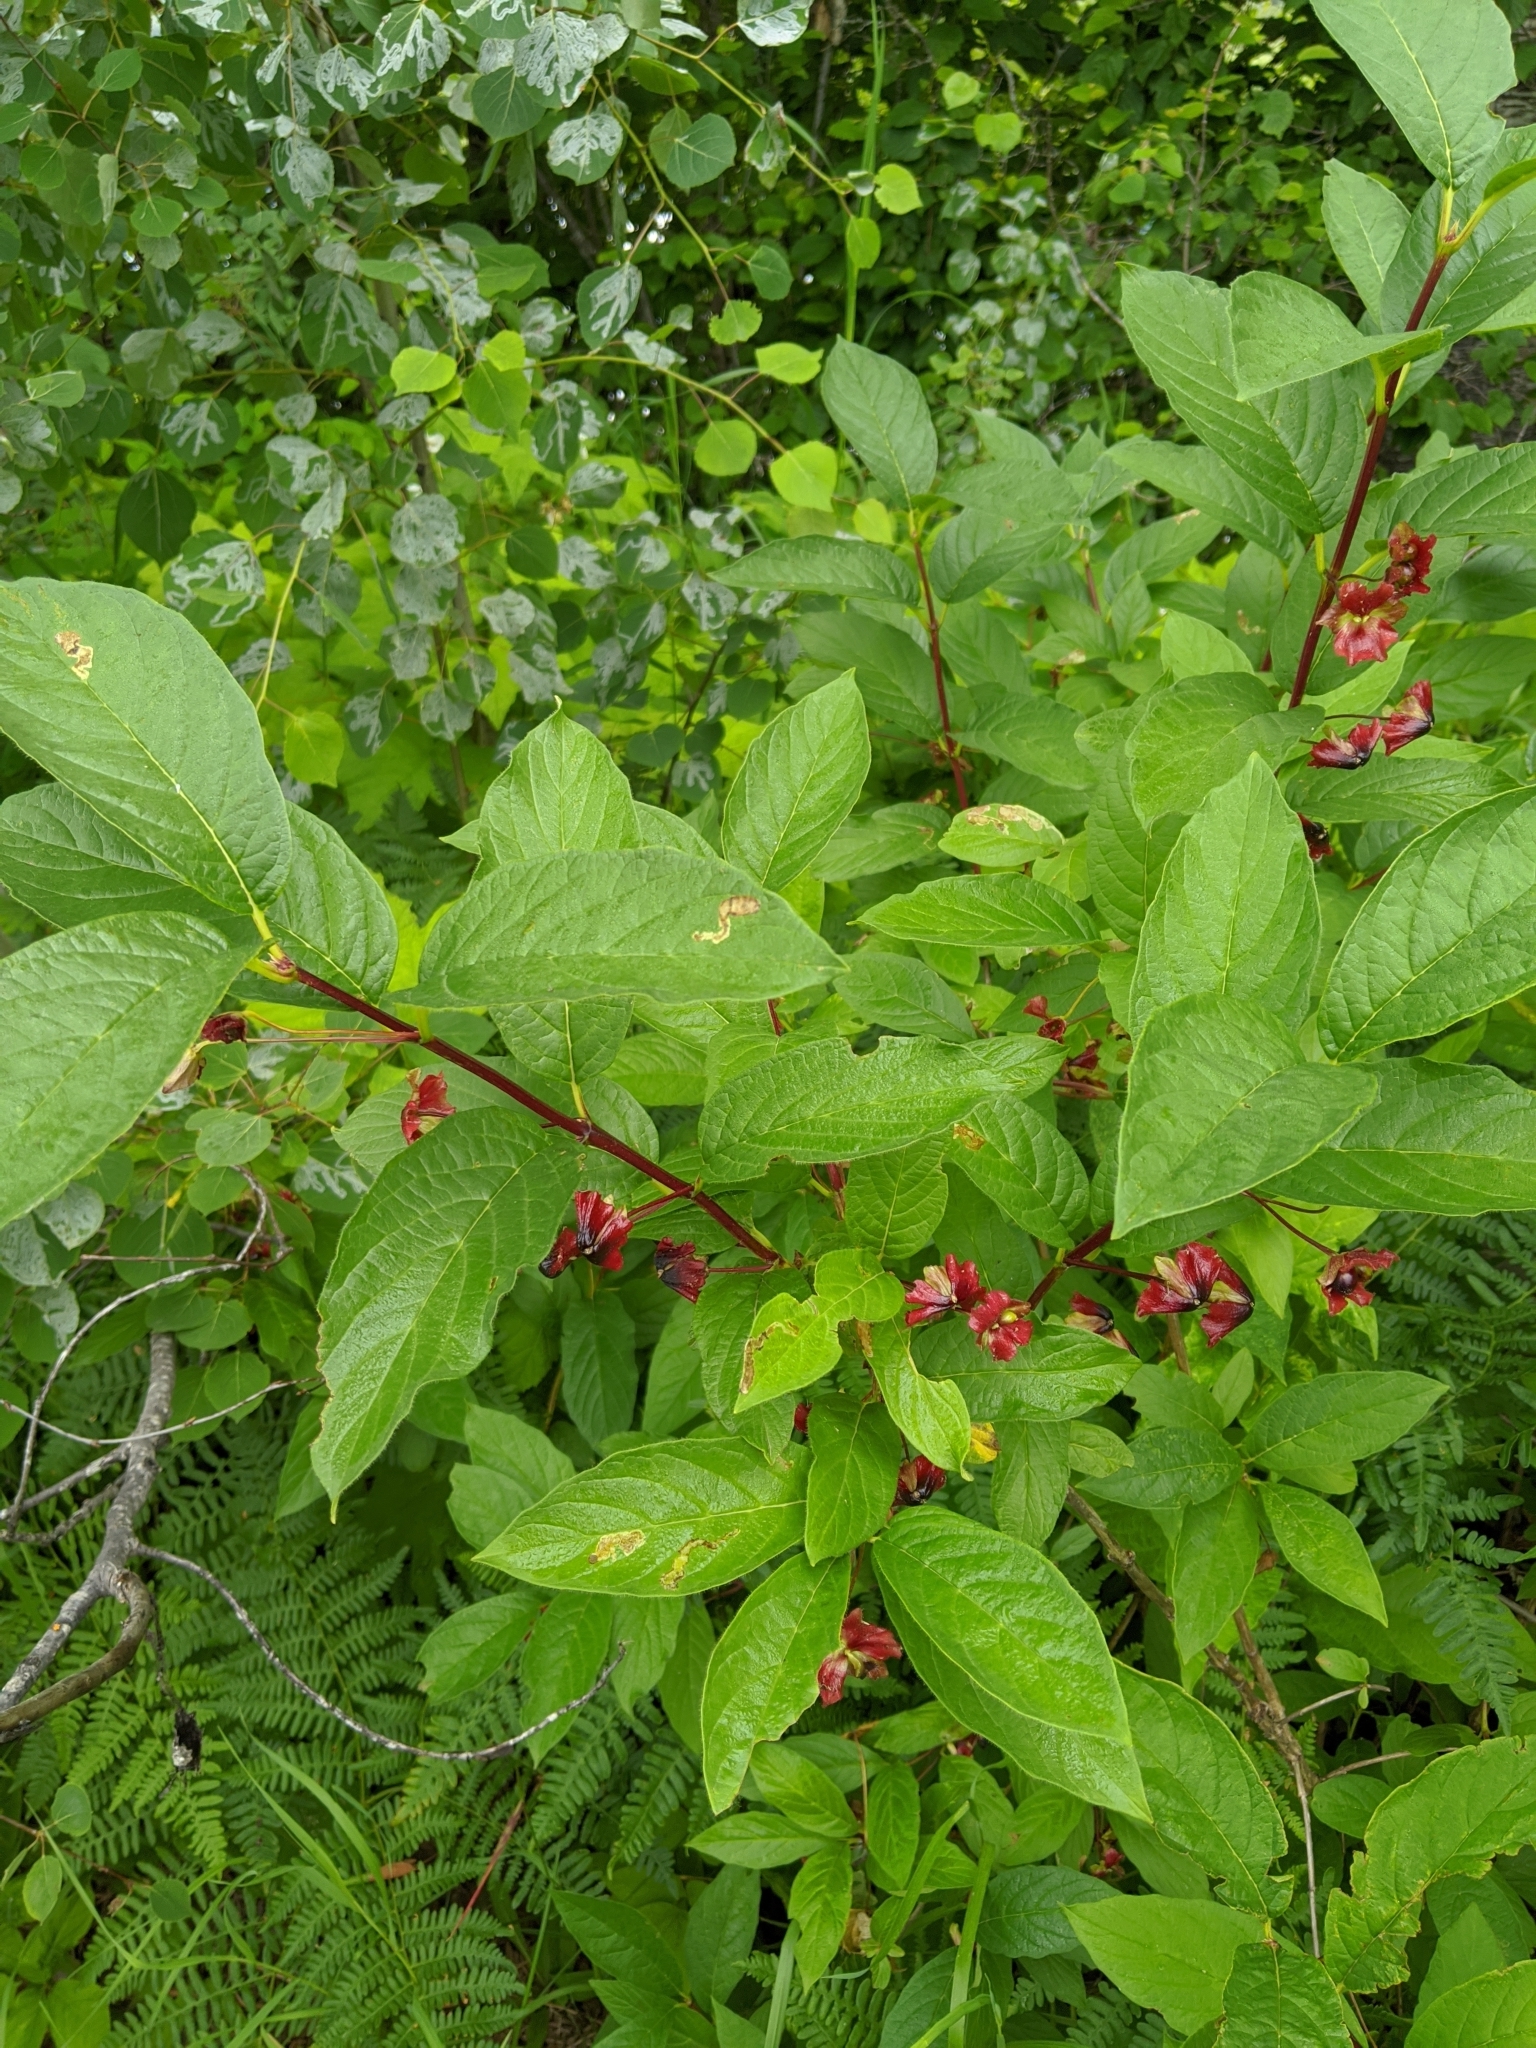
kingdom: Plantae
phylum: Tracheophyta
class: Magnoliopsida
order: Dipsacales
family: Caprifoliaceae
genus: Lonicera
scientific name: Lonicera involucrata
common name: Californian honeysuckle
